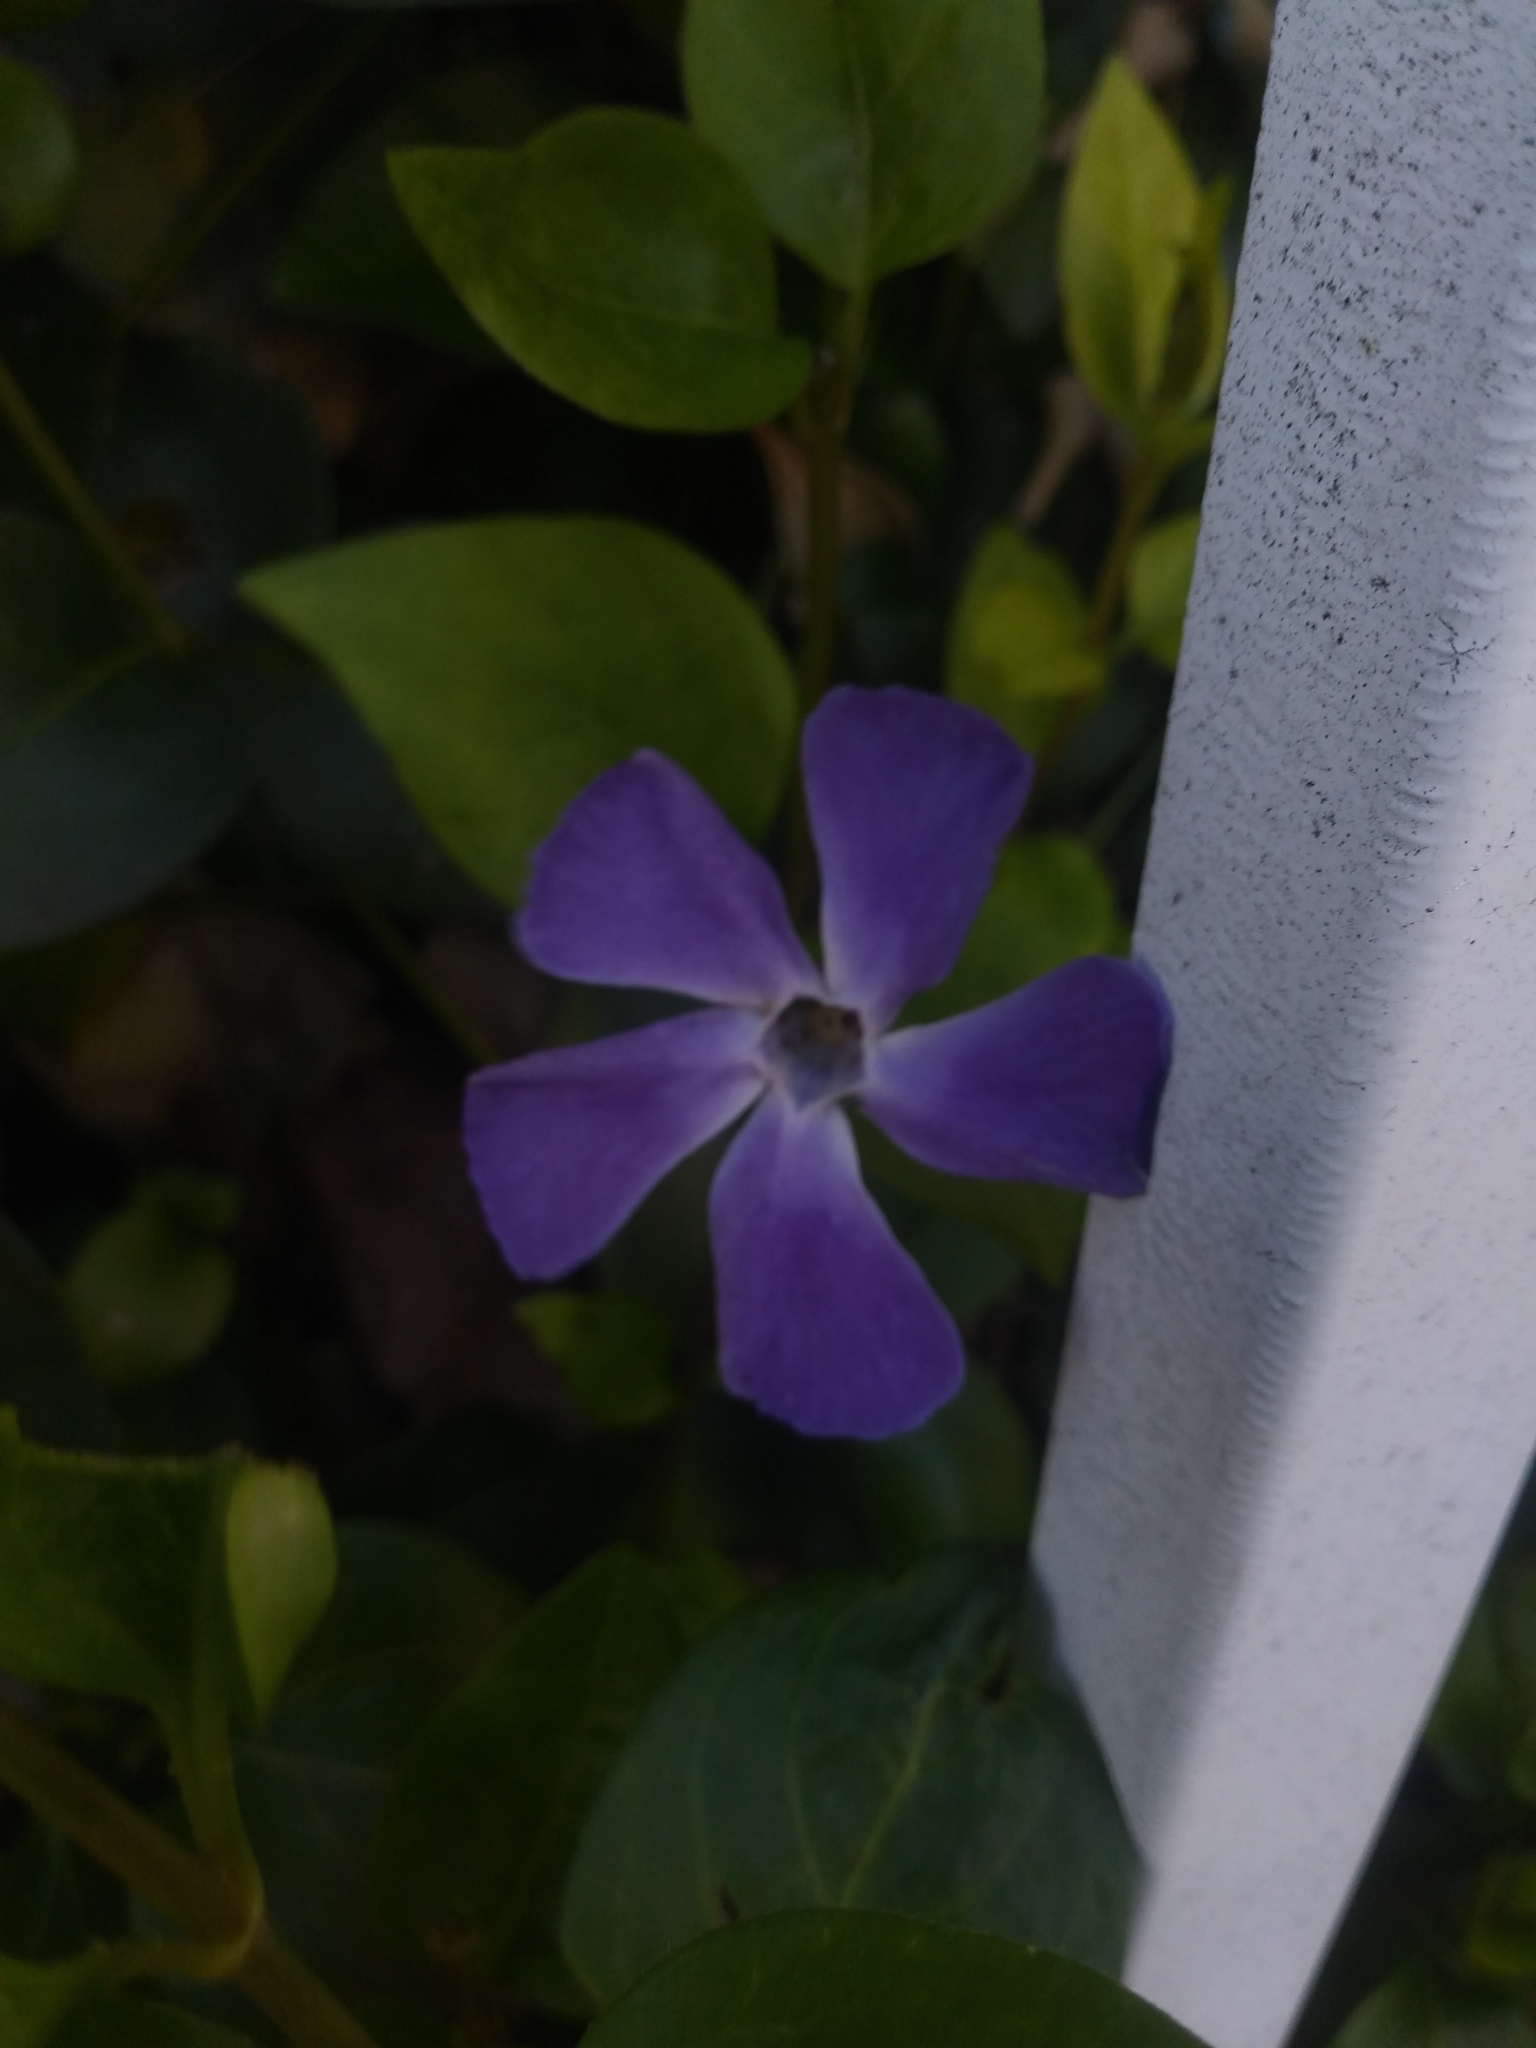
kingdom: Plantae
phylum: Tracheophyta
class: Magnoliopsida
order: Gentianales
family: Apocynaceae
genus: Vinca
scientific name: Vinca major
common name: Greater periwinkle
